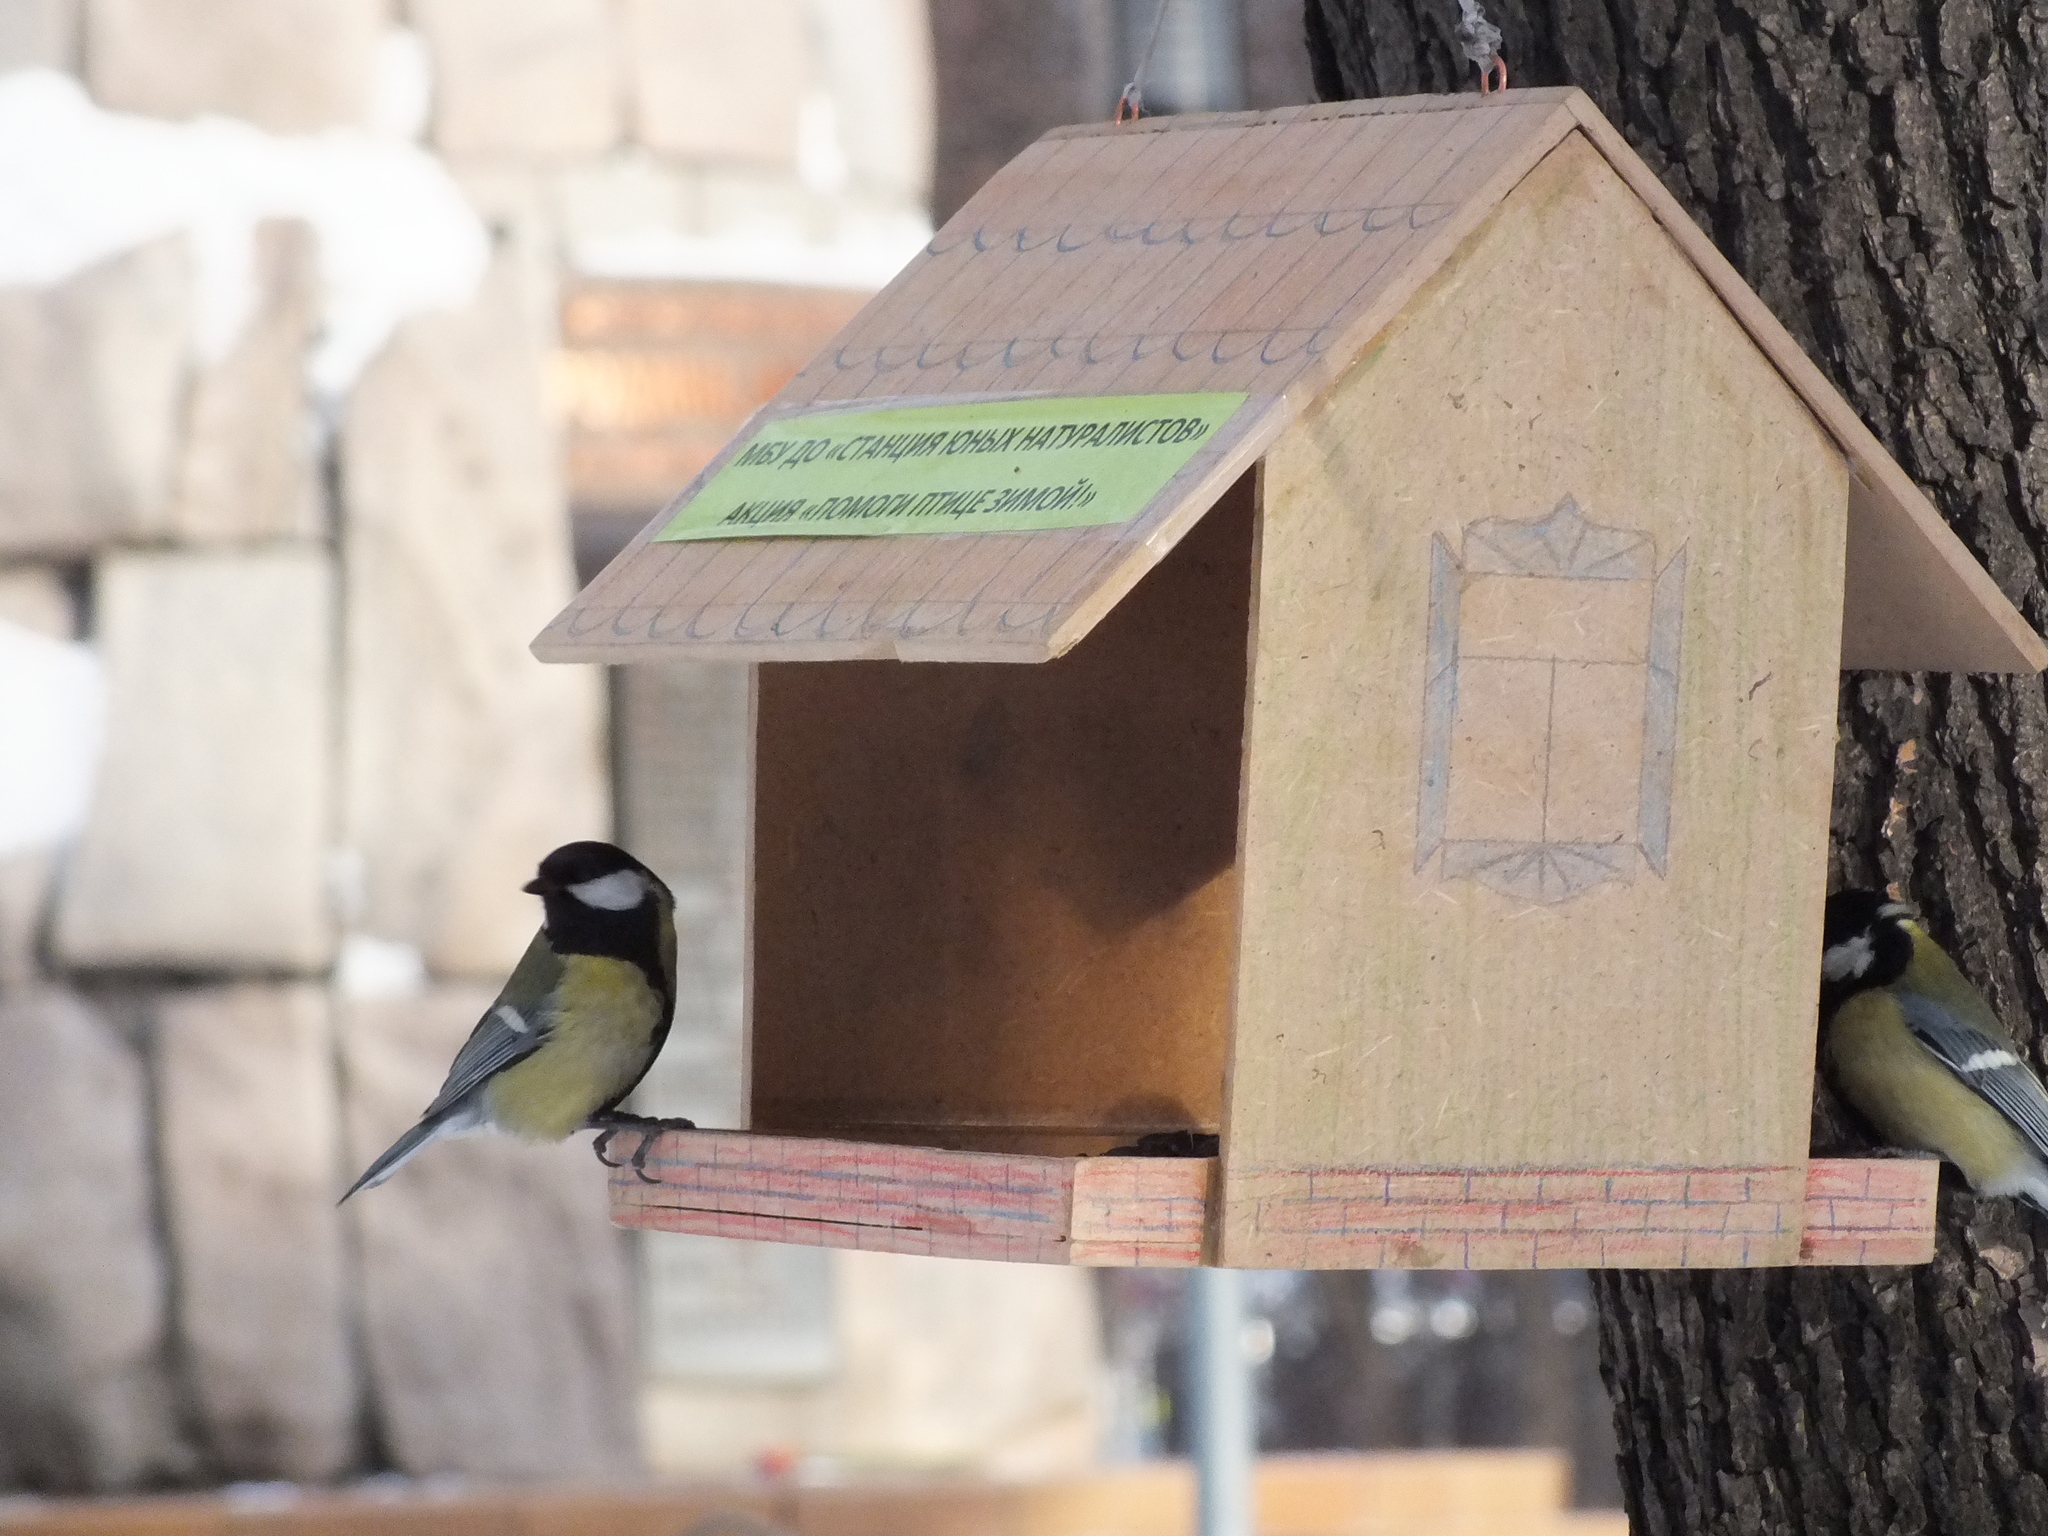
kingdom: Animalia
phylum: Chordata
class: Aves
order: Passeriformes
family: Paridae
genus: Parus
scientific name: Parus major
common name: Great tit
